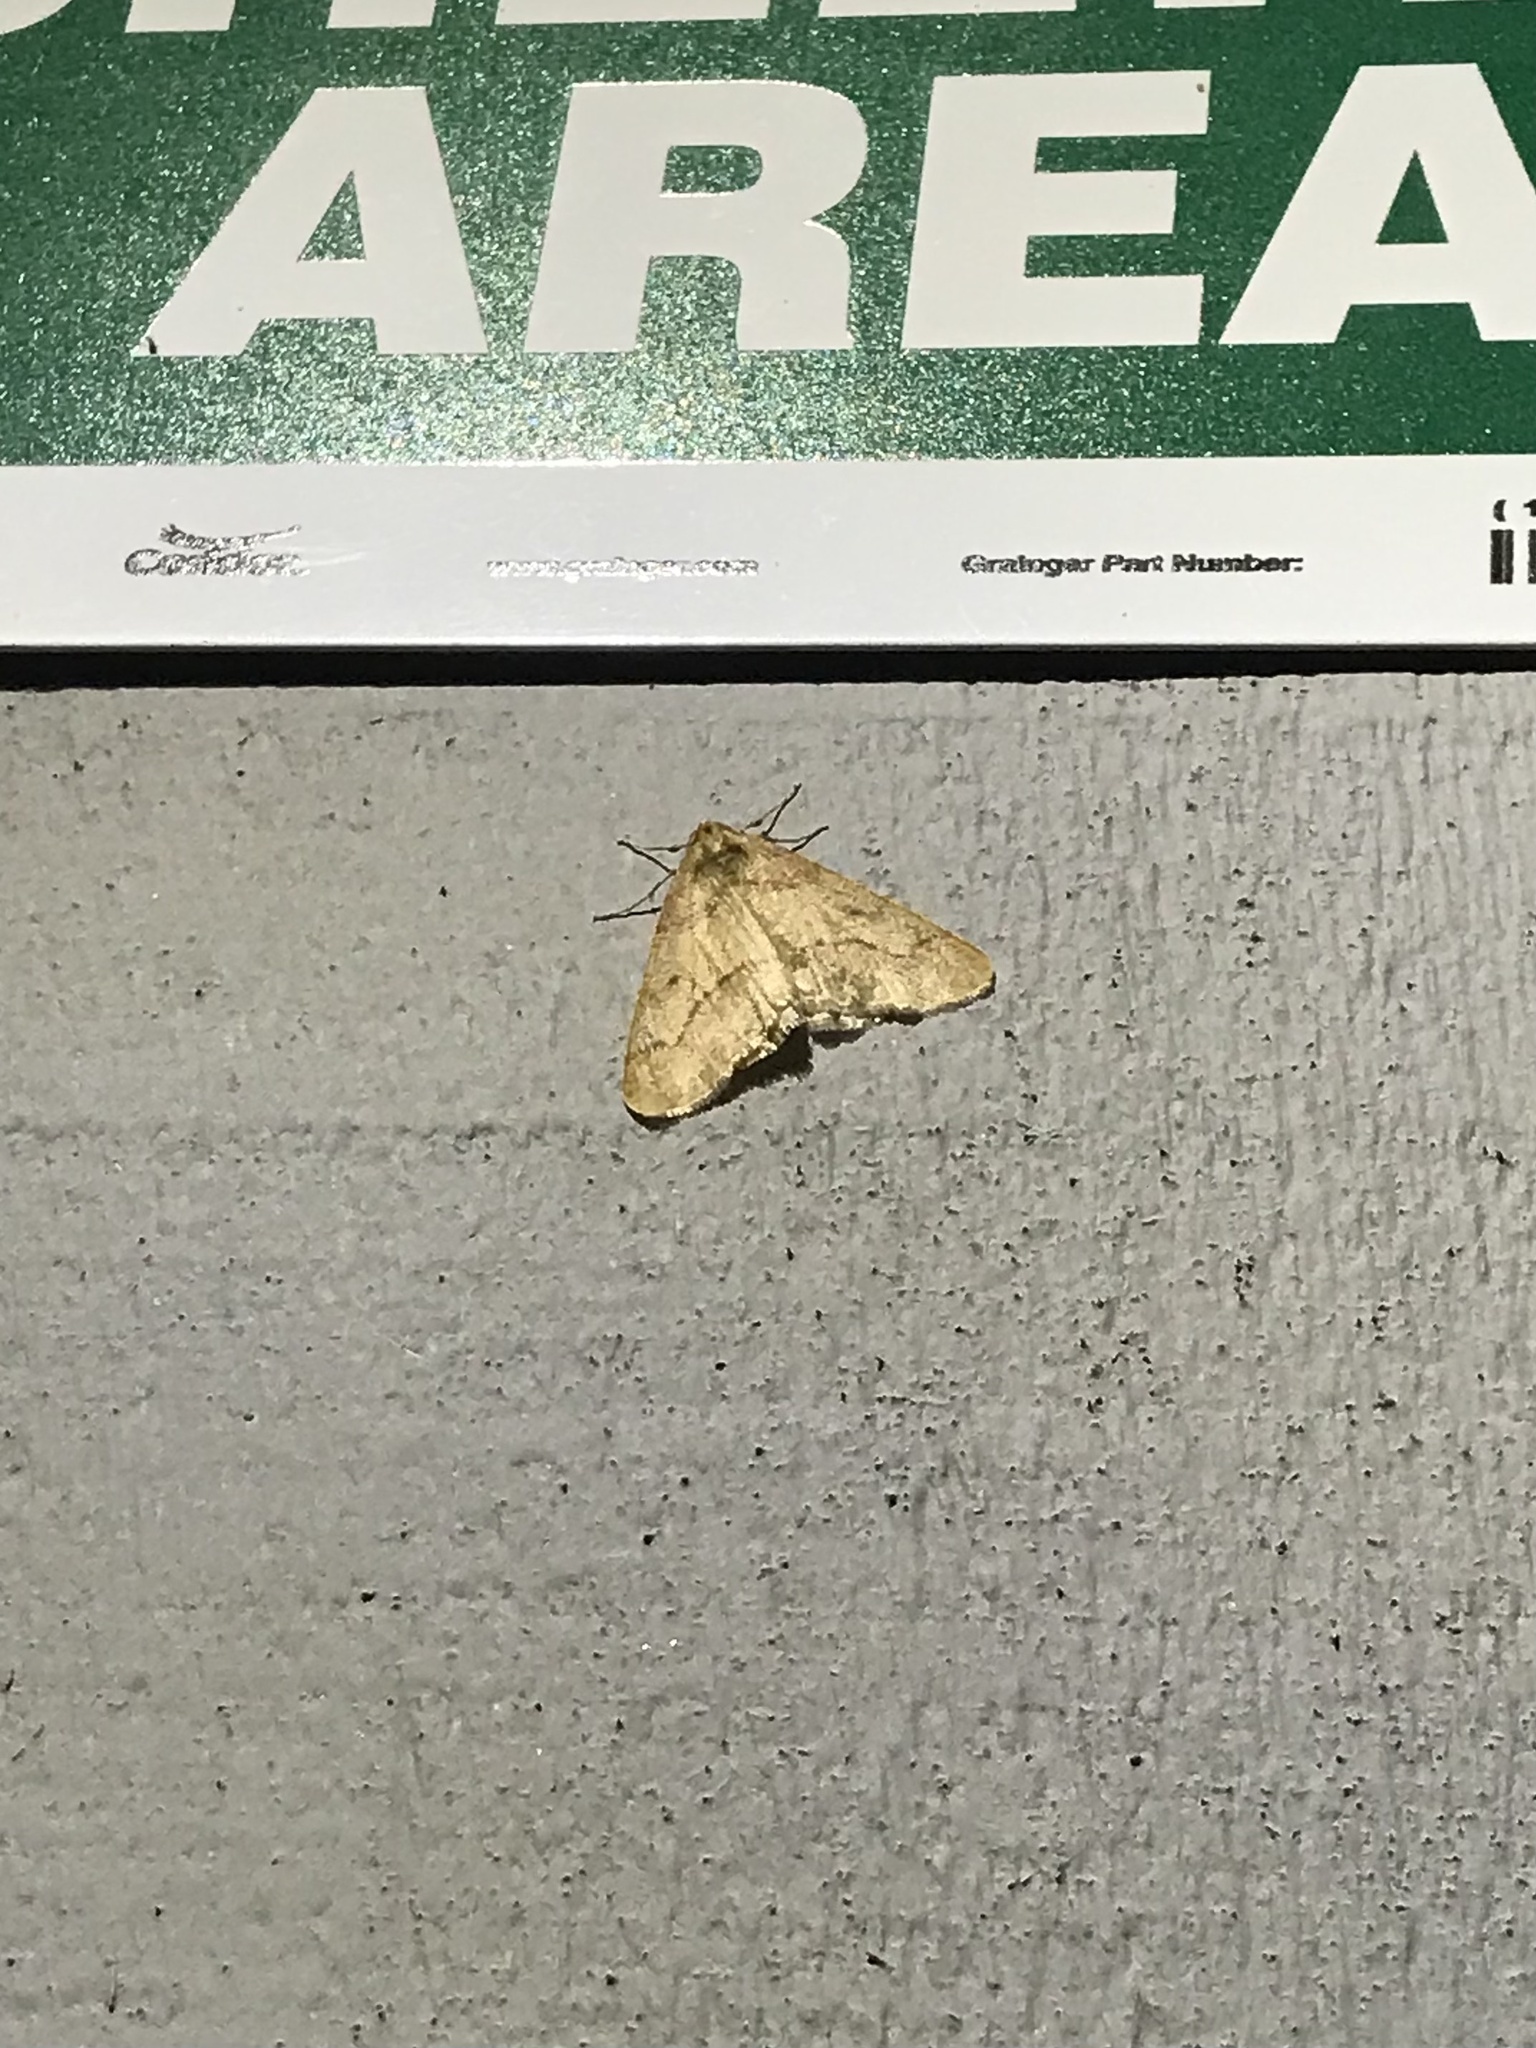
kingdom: Animalia
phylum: Arthropoda
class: Insecta
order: Lepidoptera
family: Geometridae
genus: Erannis
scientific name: Erannis tiliaria
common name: Linden looper
